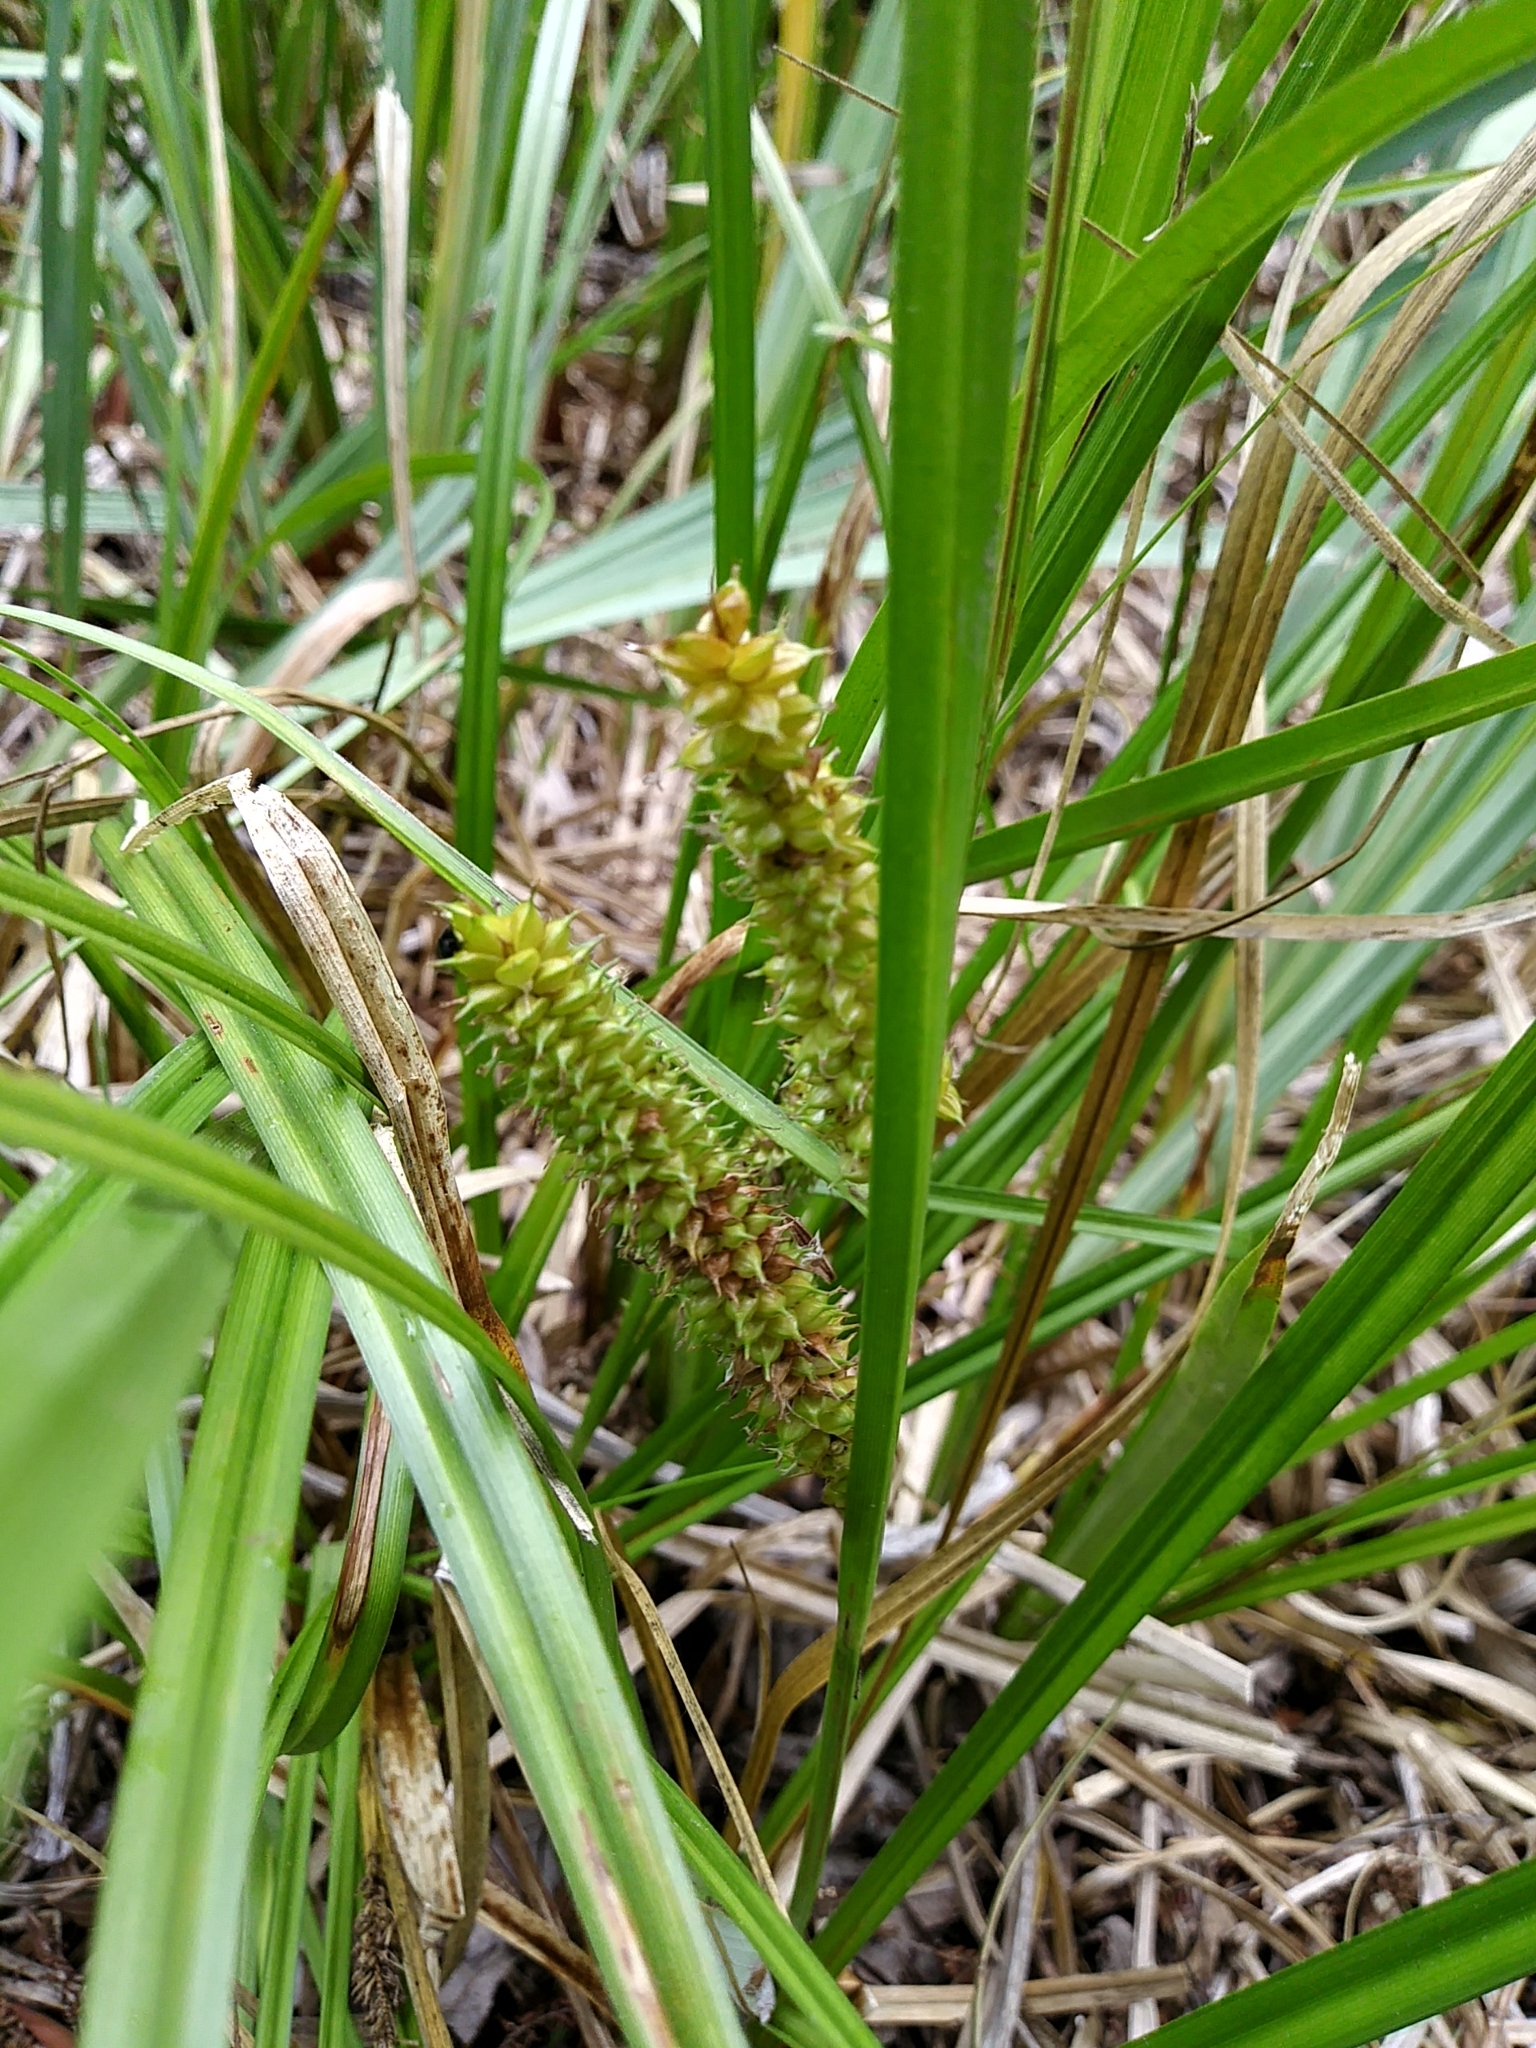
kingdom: Plantae
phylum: Tracheophyta
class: Liliopsida
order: Poales
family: Cyperaceae
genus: Carex
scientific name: Carex utriculata
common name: Beaked sedge
